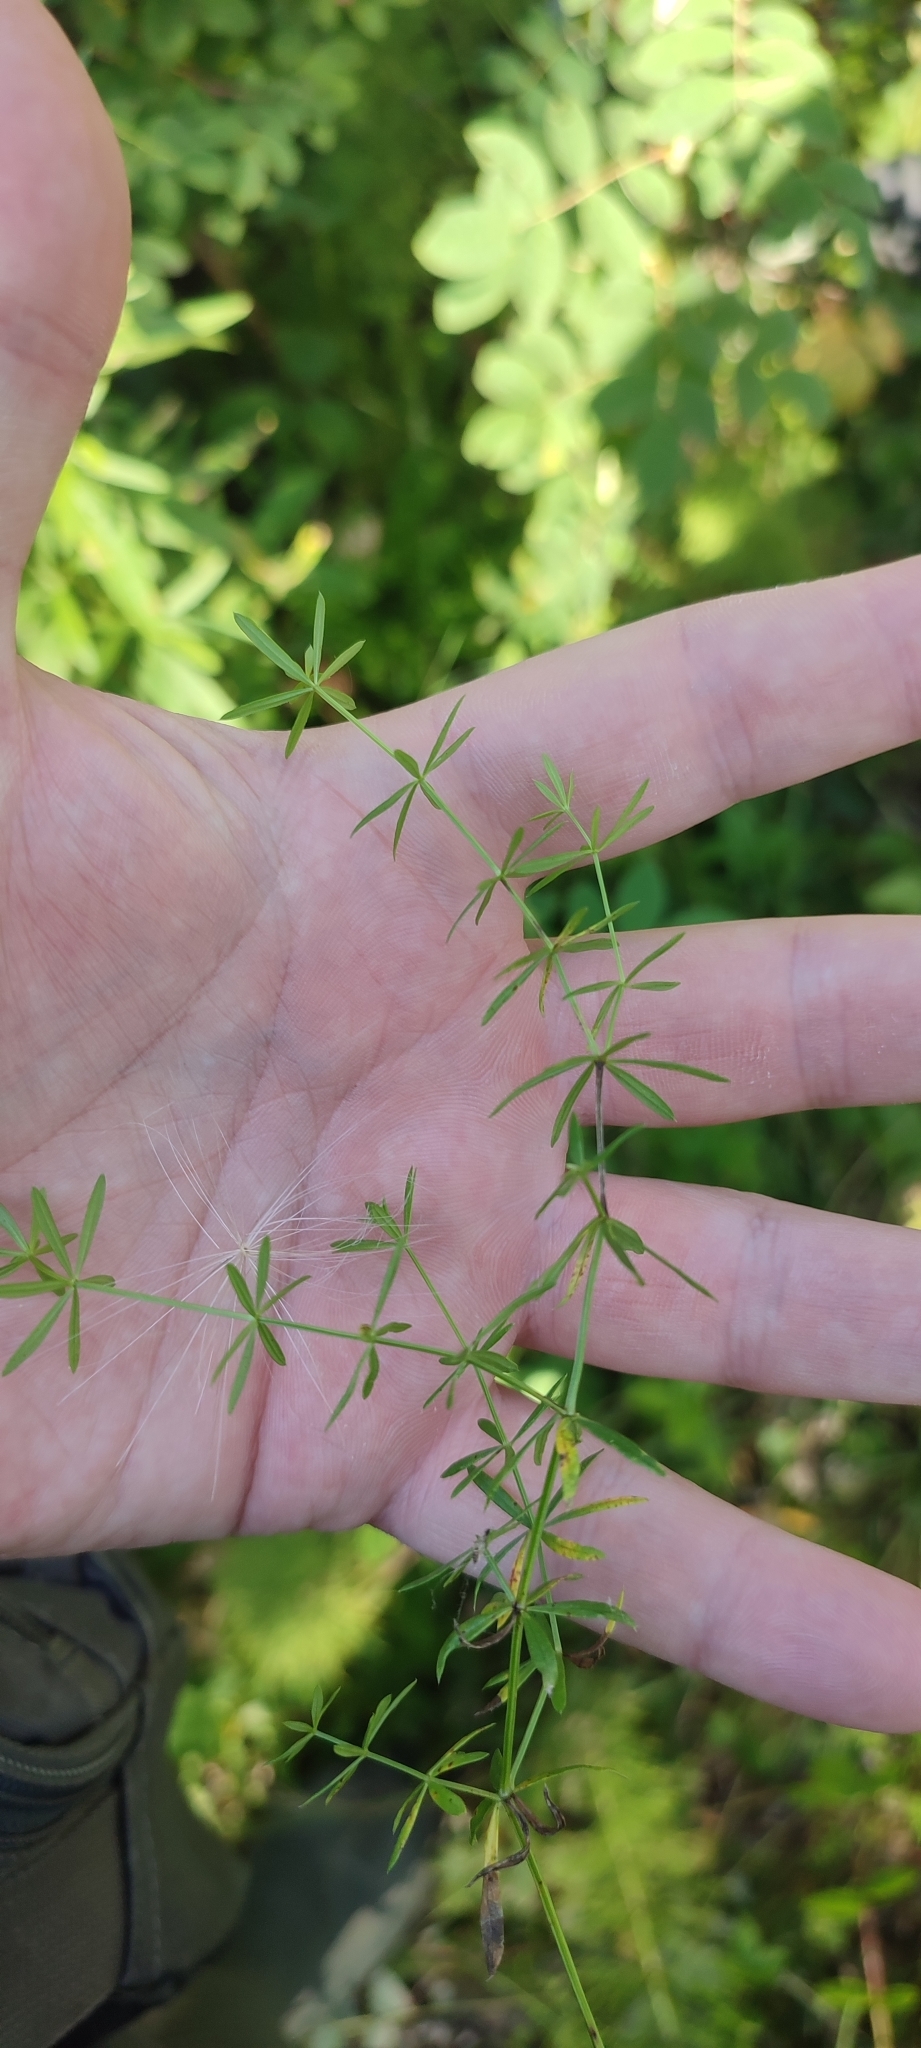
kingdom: Plantae
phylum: Tracheophyta
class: Magnoliopsida
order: Gentianales
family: Rubiaceae
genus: Galium
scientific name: Galium mollugo
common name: Hedge bedstraw
